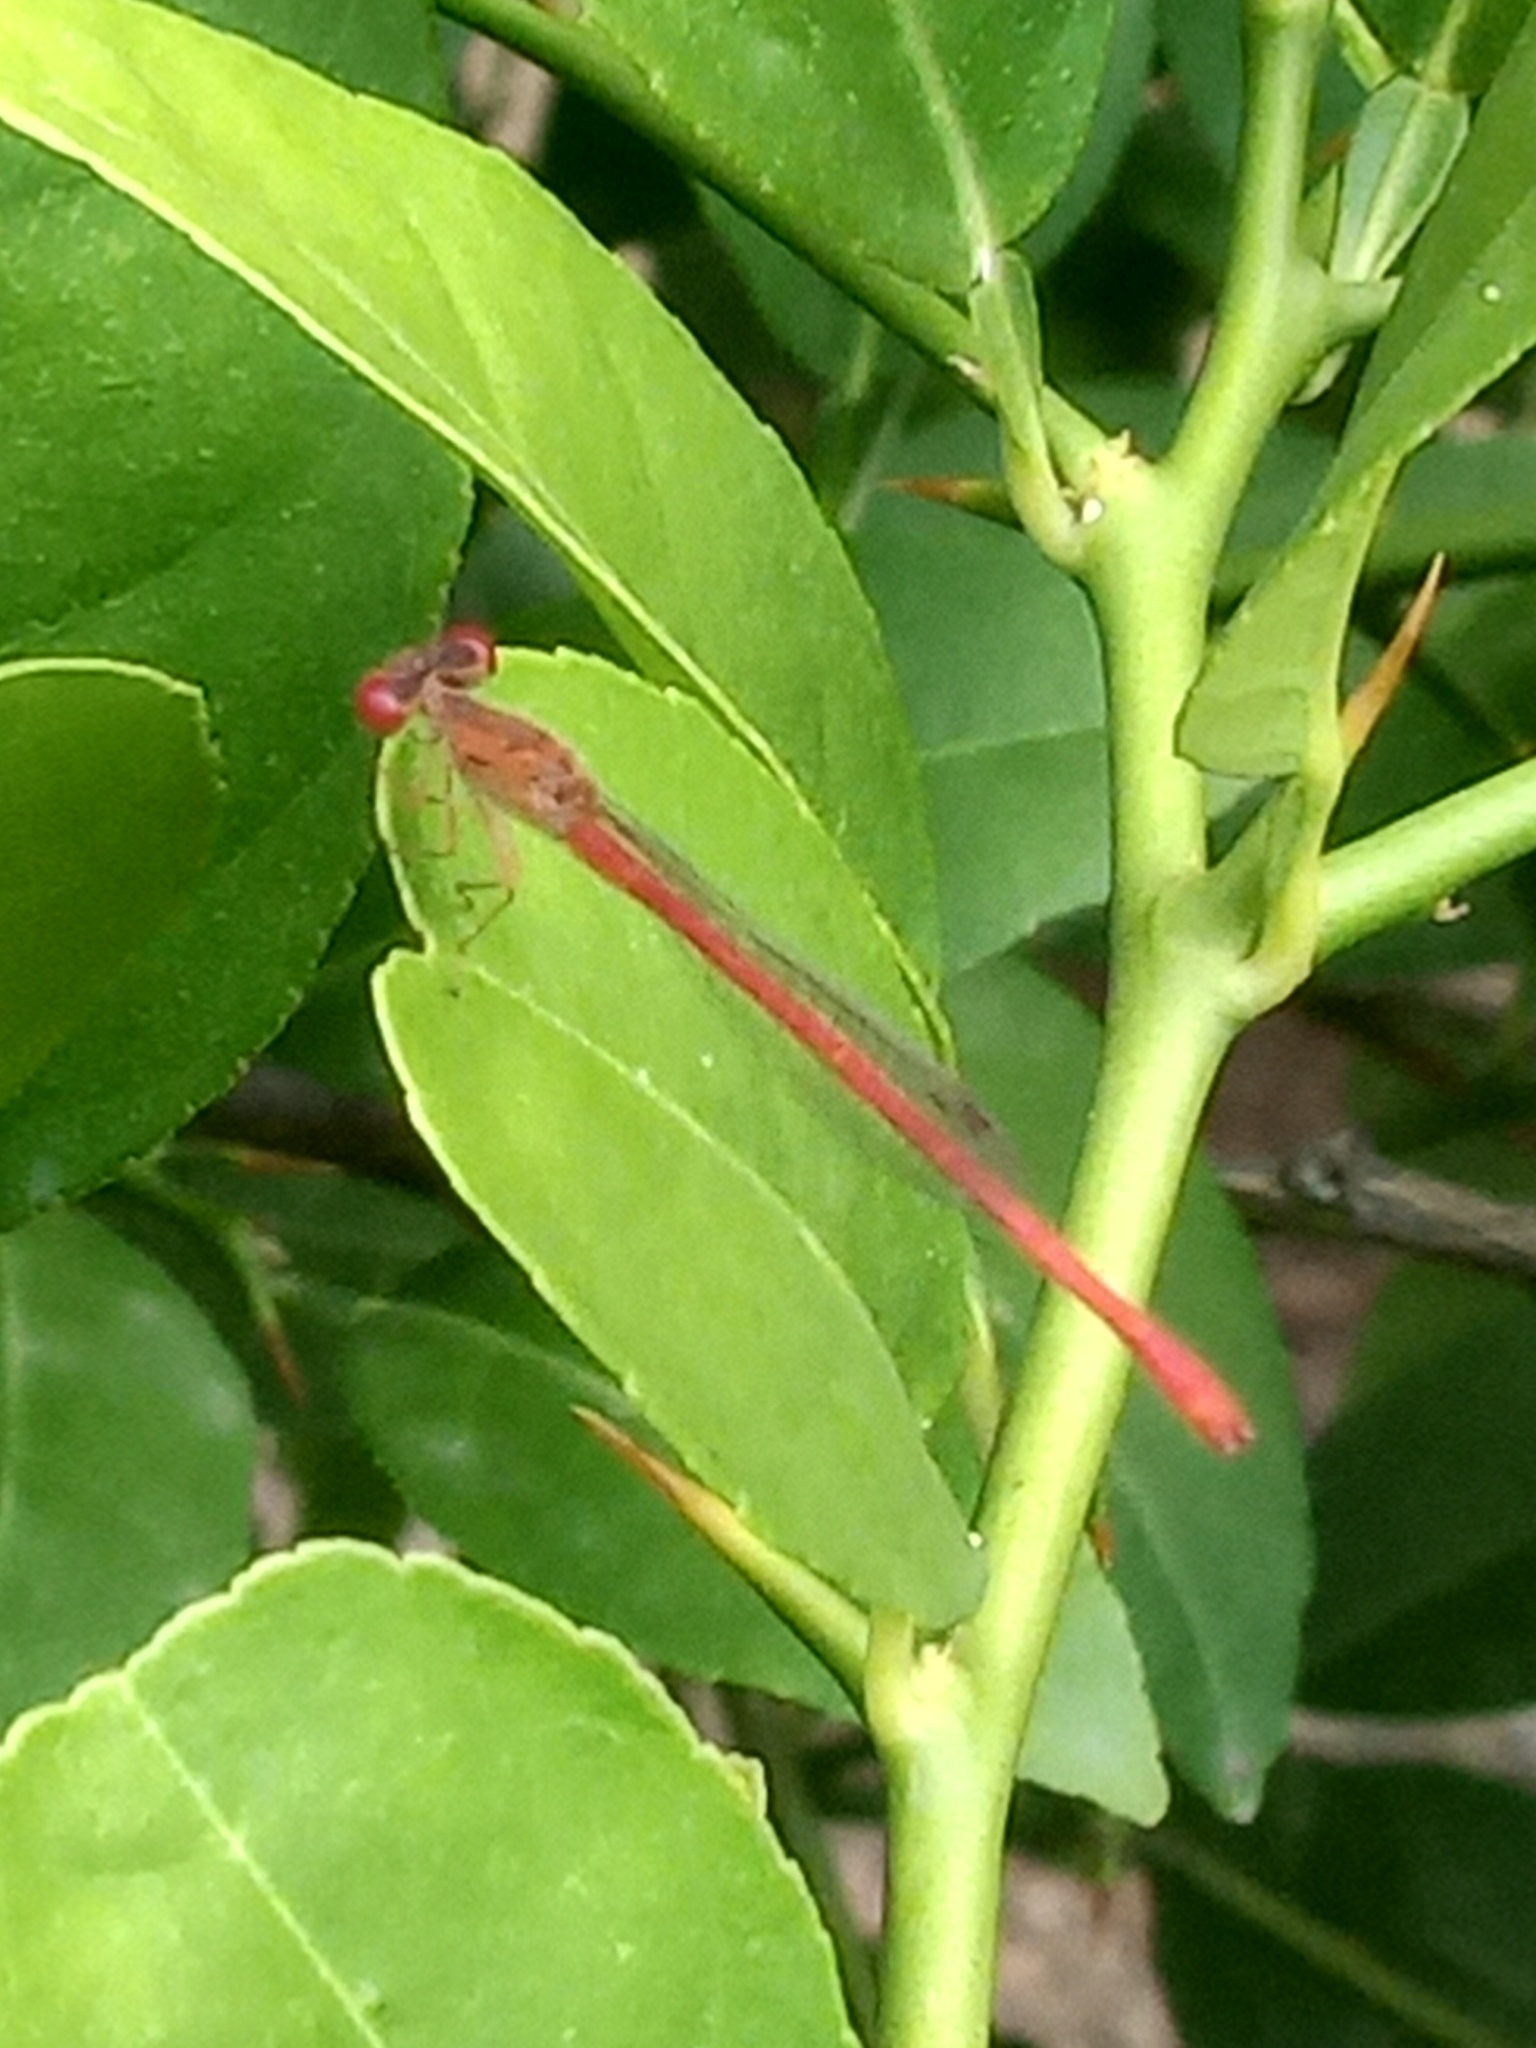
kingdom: Animalia
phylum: Arthropoda
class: Insecta
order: Odonata
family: Coenagrionidae
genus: Telebasis
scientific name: Telebasis salva
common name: Desert firetail
